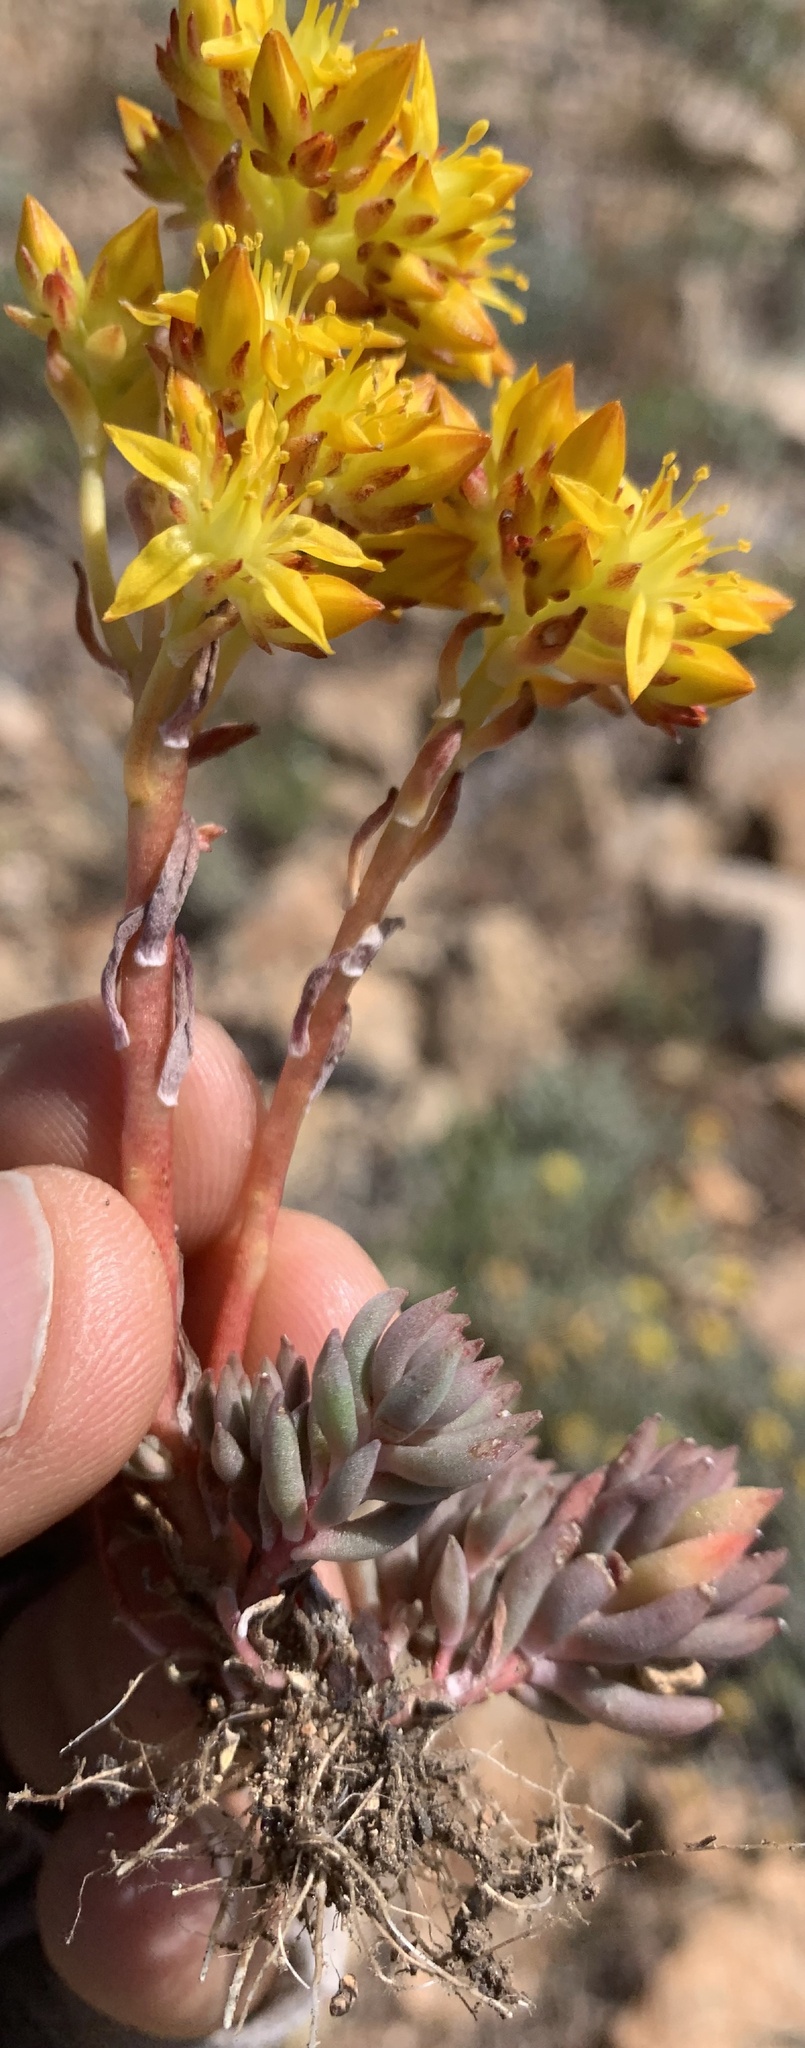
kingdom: Plantae
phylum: Tracheophyta
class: Magnoliopsida
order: Saxifragales
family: Crassulaceae
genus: Sedum
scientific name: Sedum lanceolatum
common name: Common stonecrop
